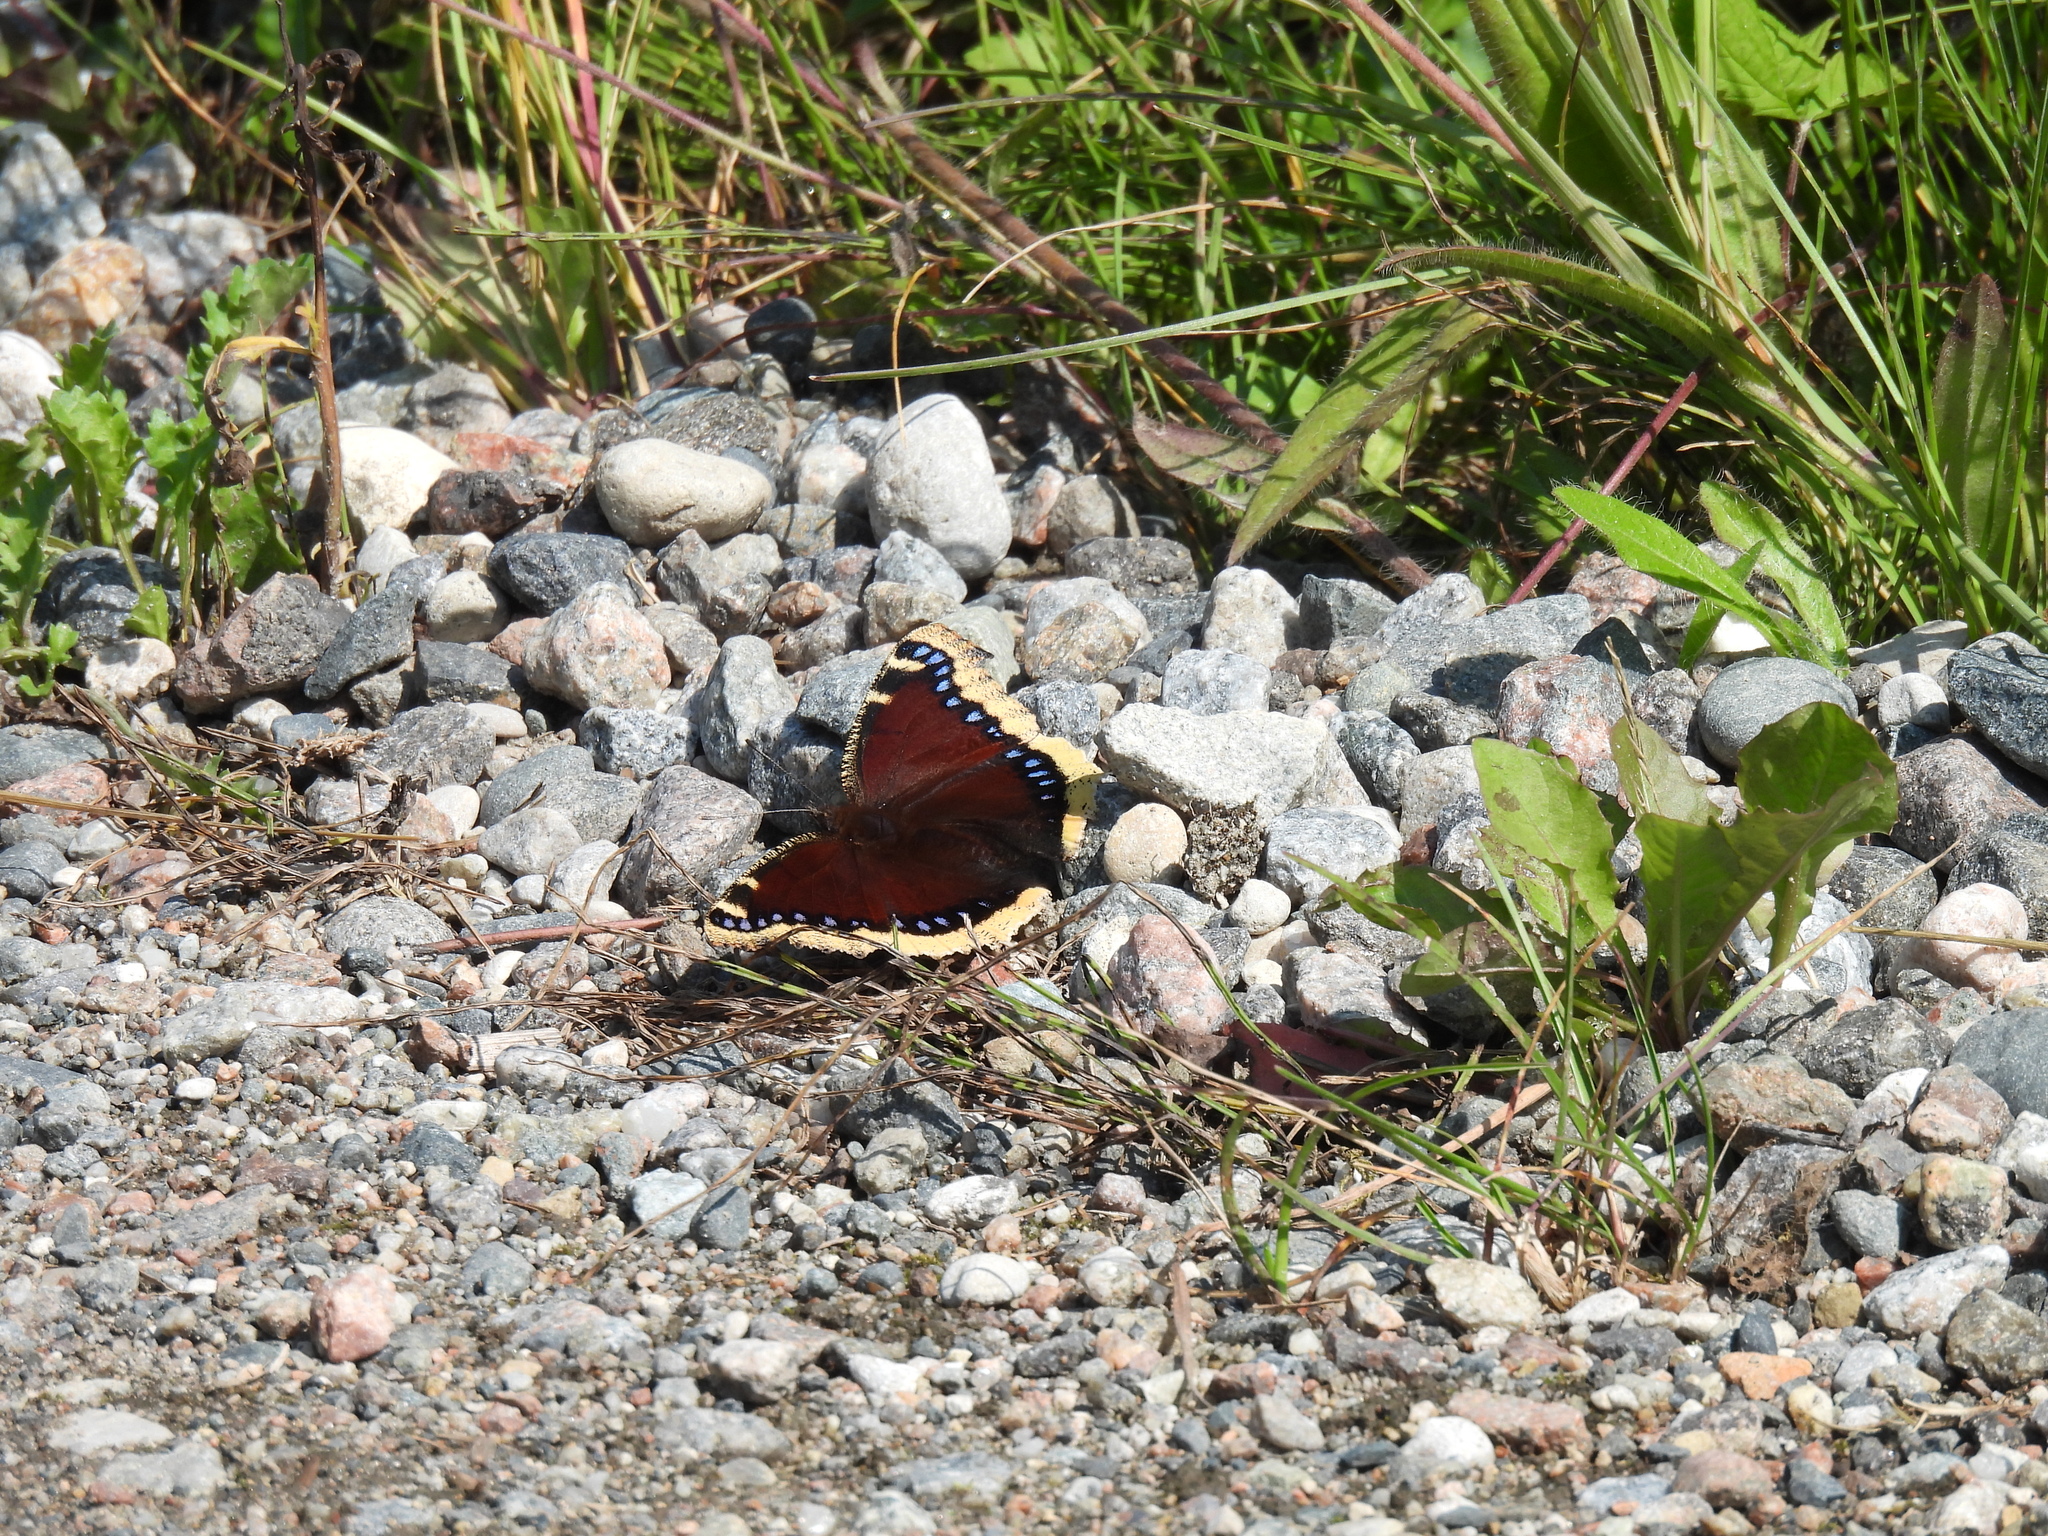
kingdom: Animalia
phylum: Arthropoda
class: Insecta
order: Lepidoptera
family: Nymphalidae
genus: Nymphalis
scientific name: Nymphalis antiopa
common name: Camberwell beauty
